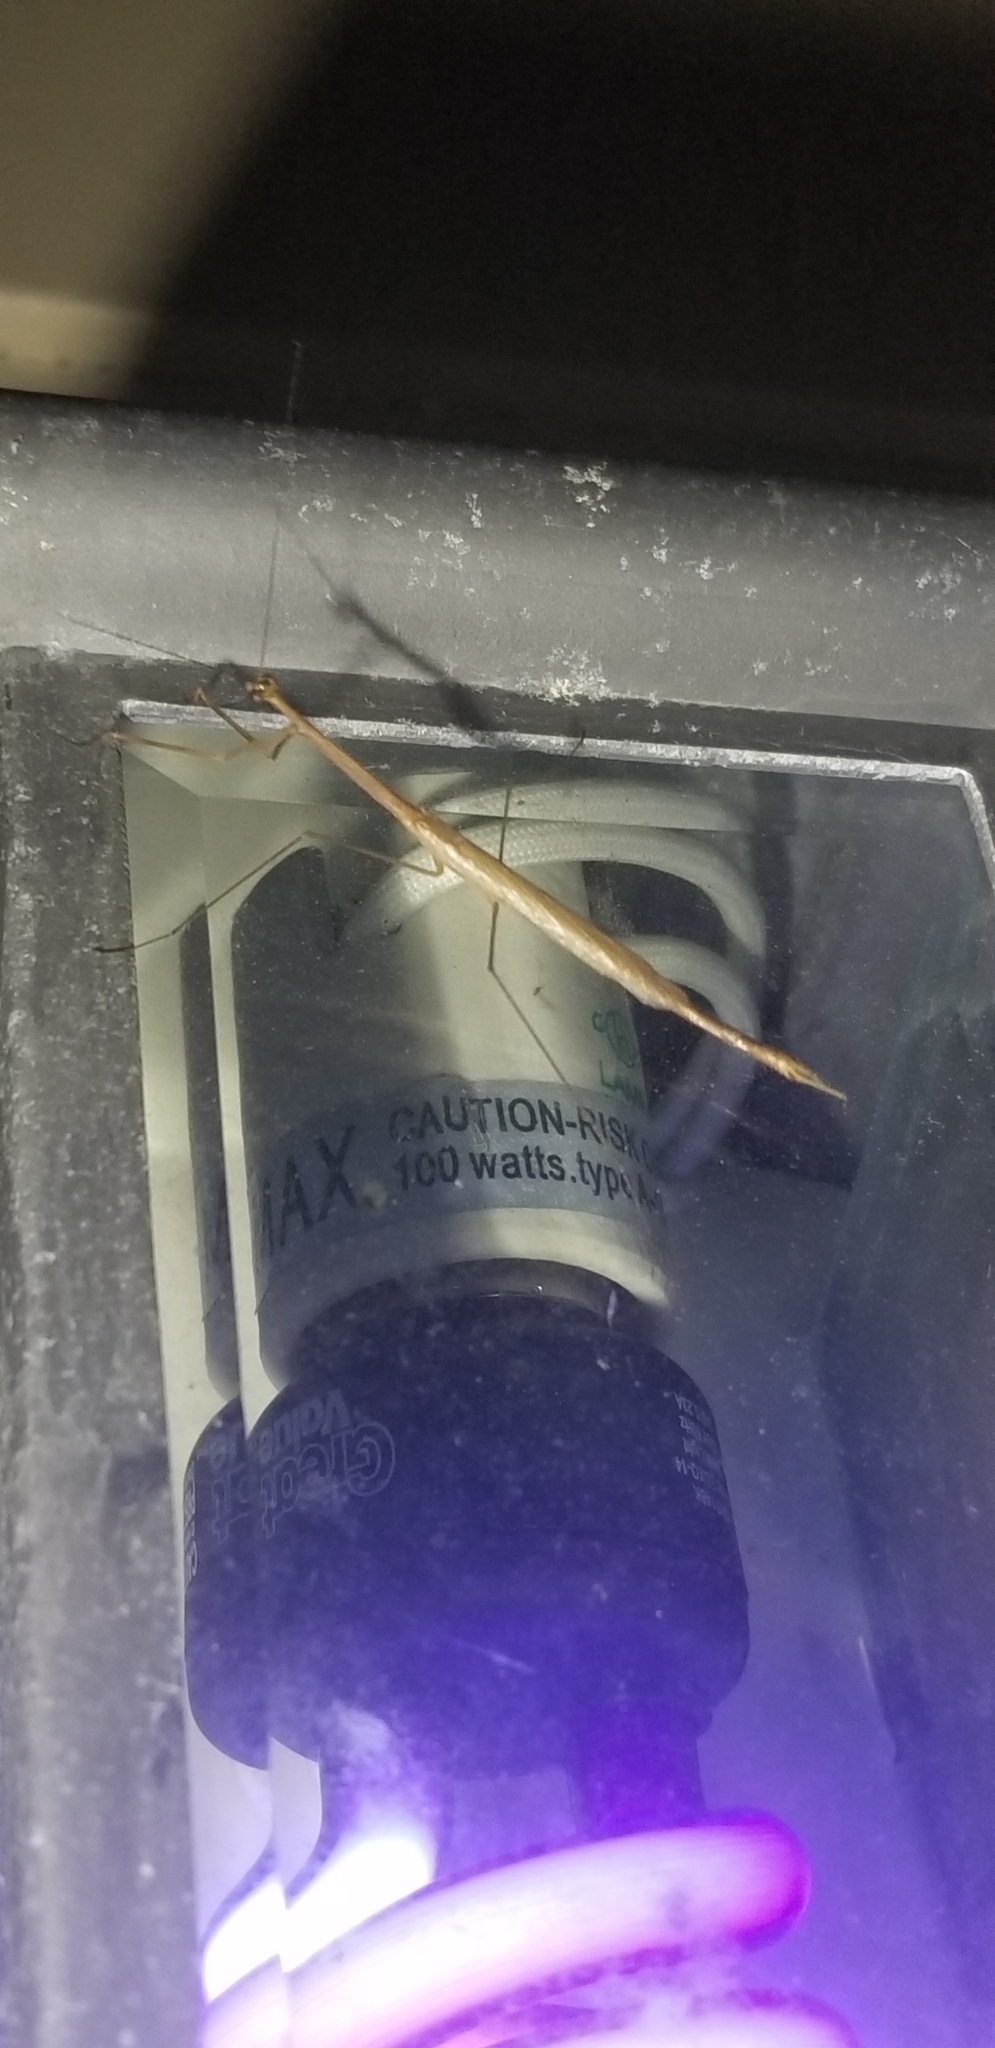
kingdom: Animalia
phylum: Arthropoda
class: Insecta
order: Mantodea
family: Thespidae
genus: Thesprotia
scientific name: Thesprotia graminis
